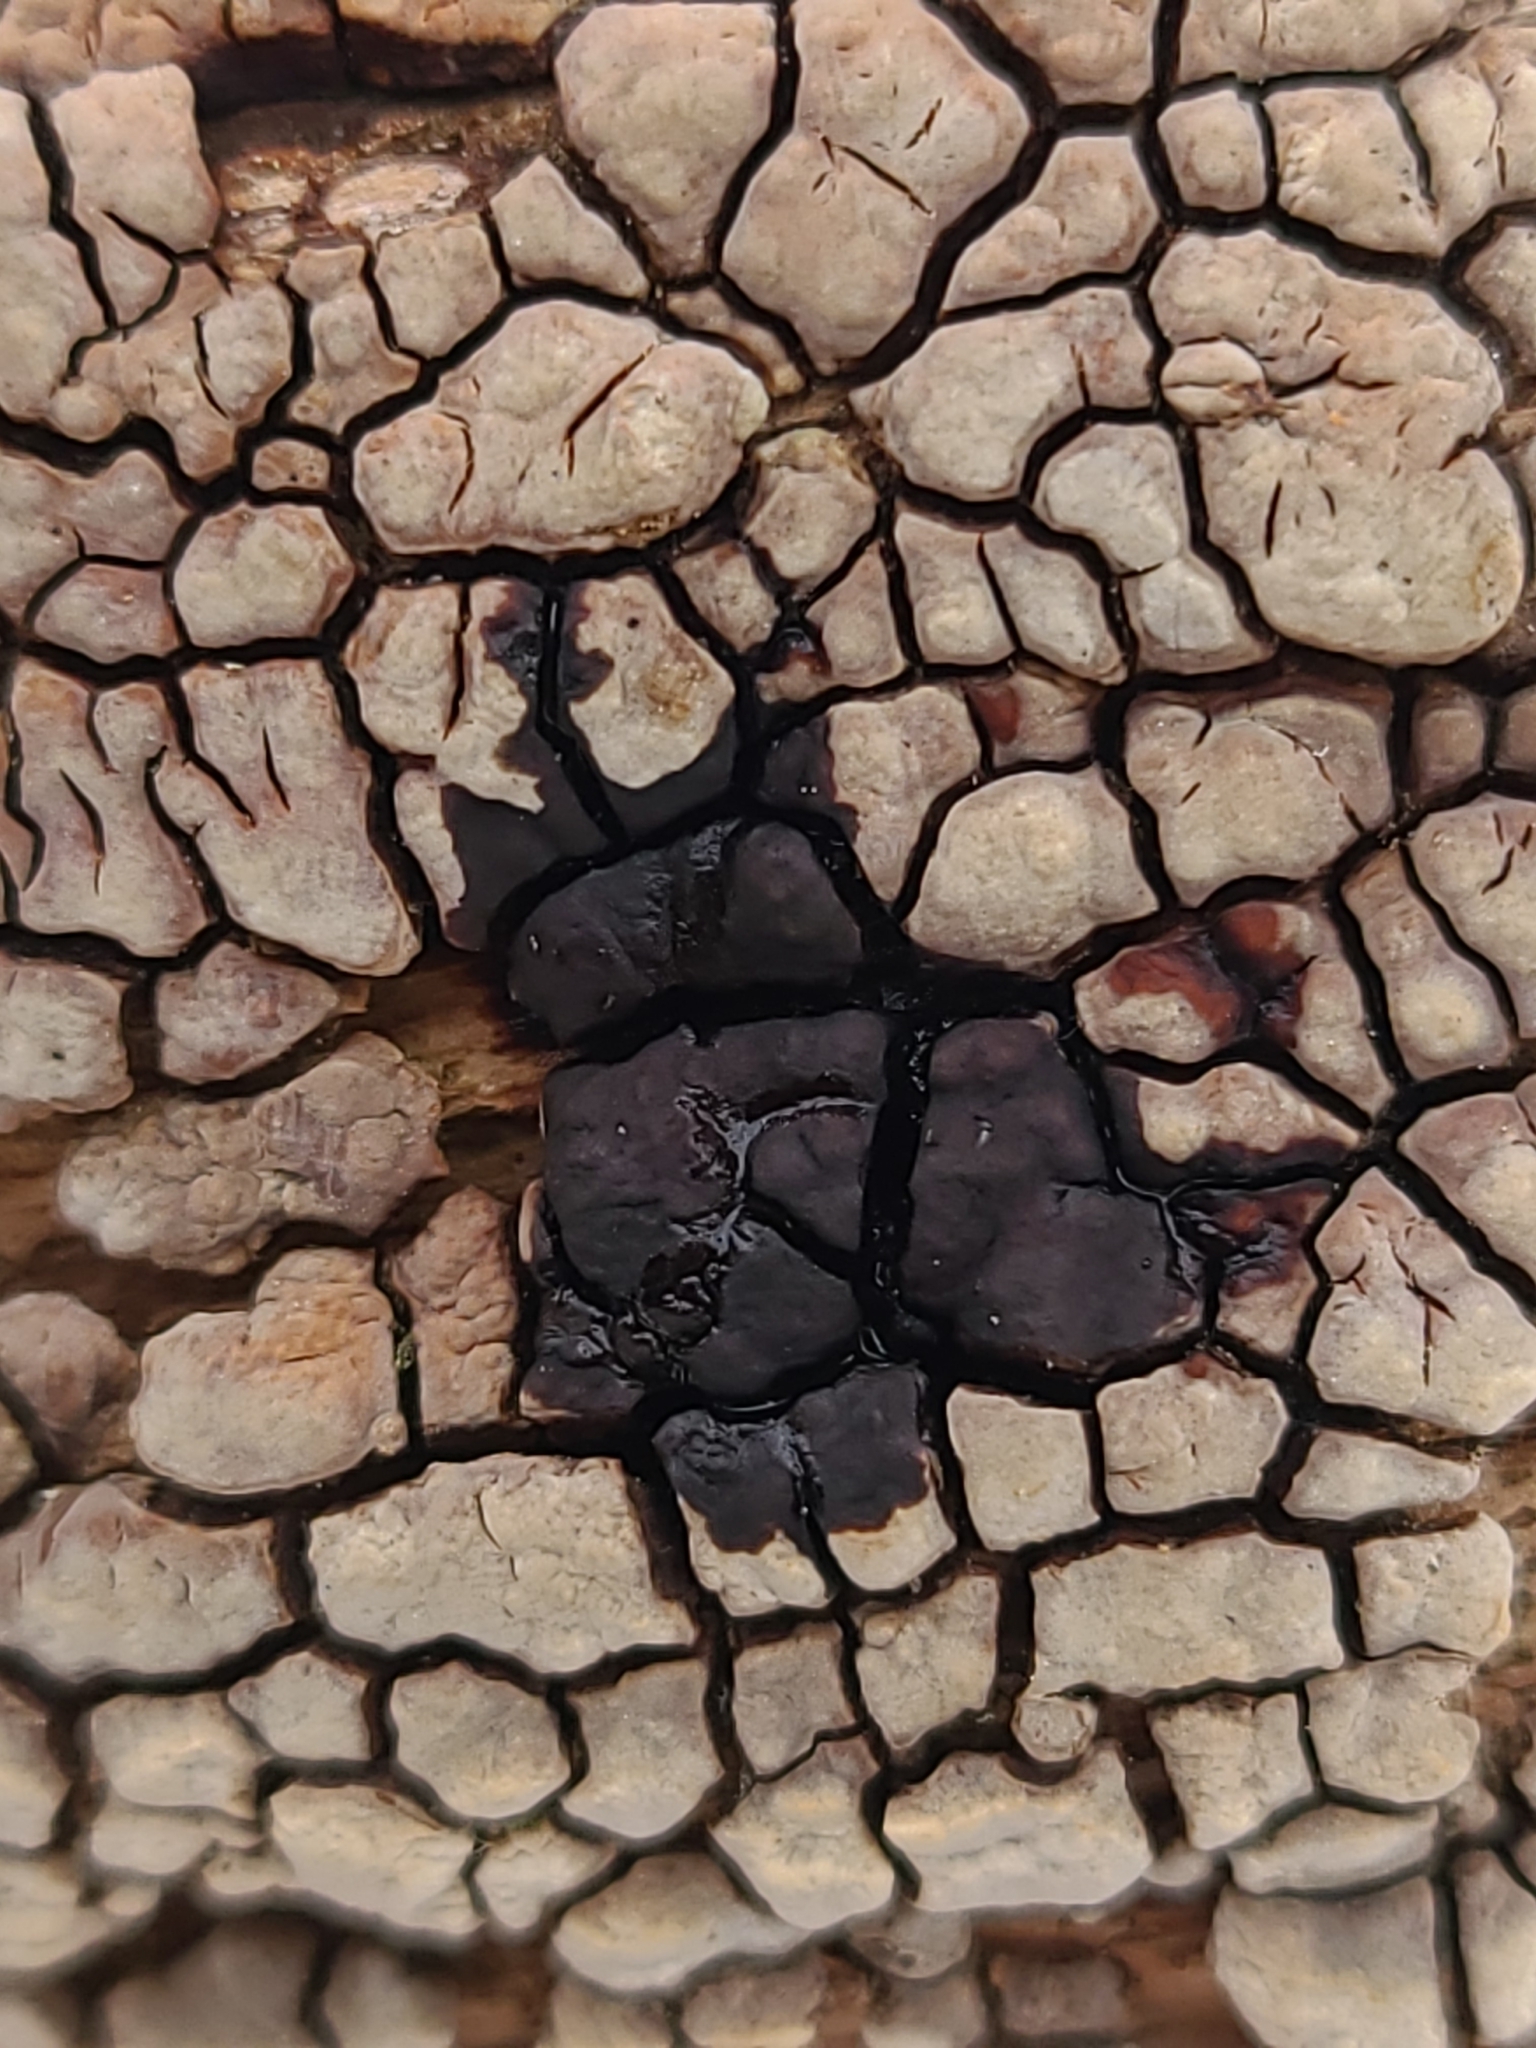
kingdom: Fungi
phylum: Basidiomycota
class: Agaricomycetes
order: Russulales
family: Stereaceae
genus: Xylobolus
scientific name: Xylobolus frustulatus
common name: Ceramic parchment
